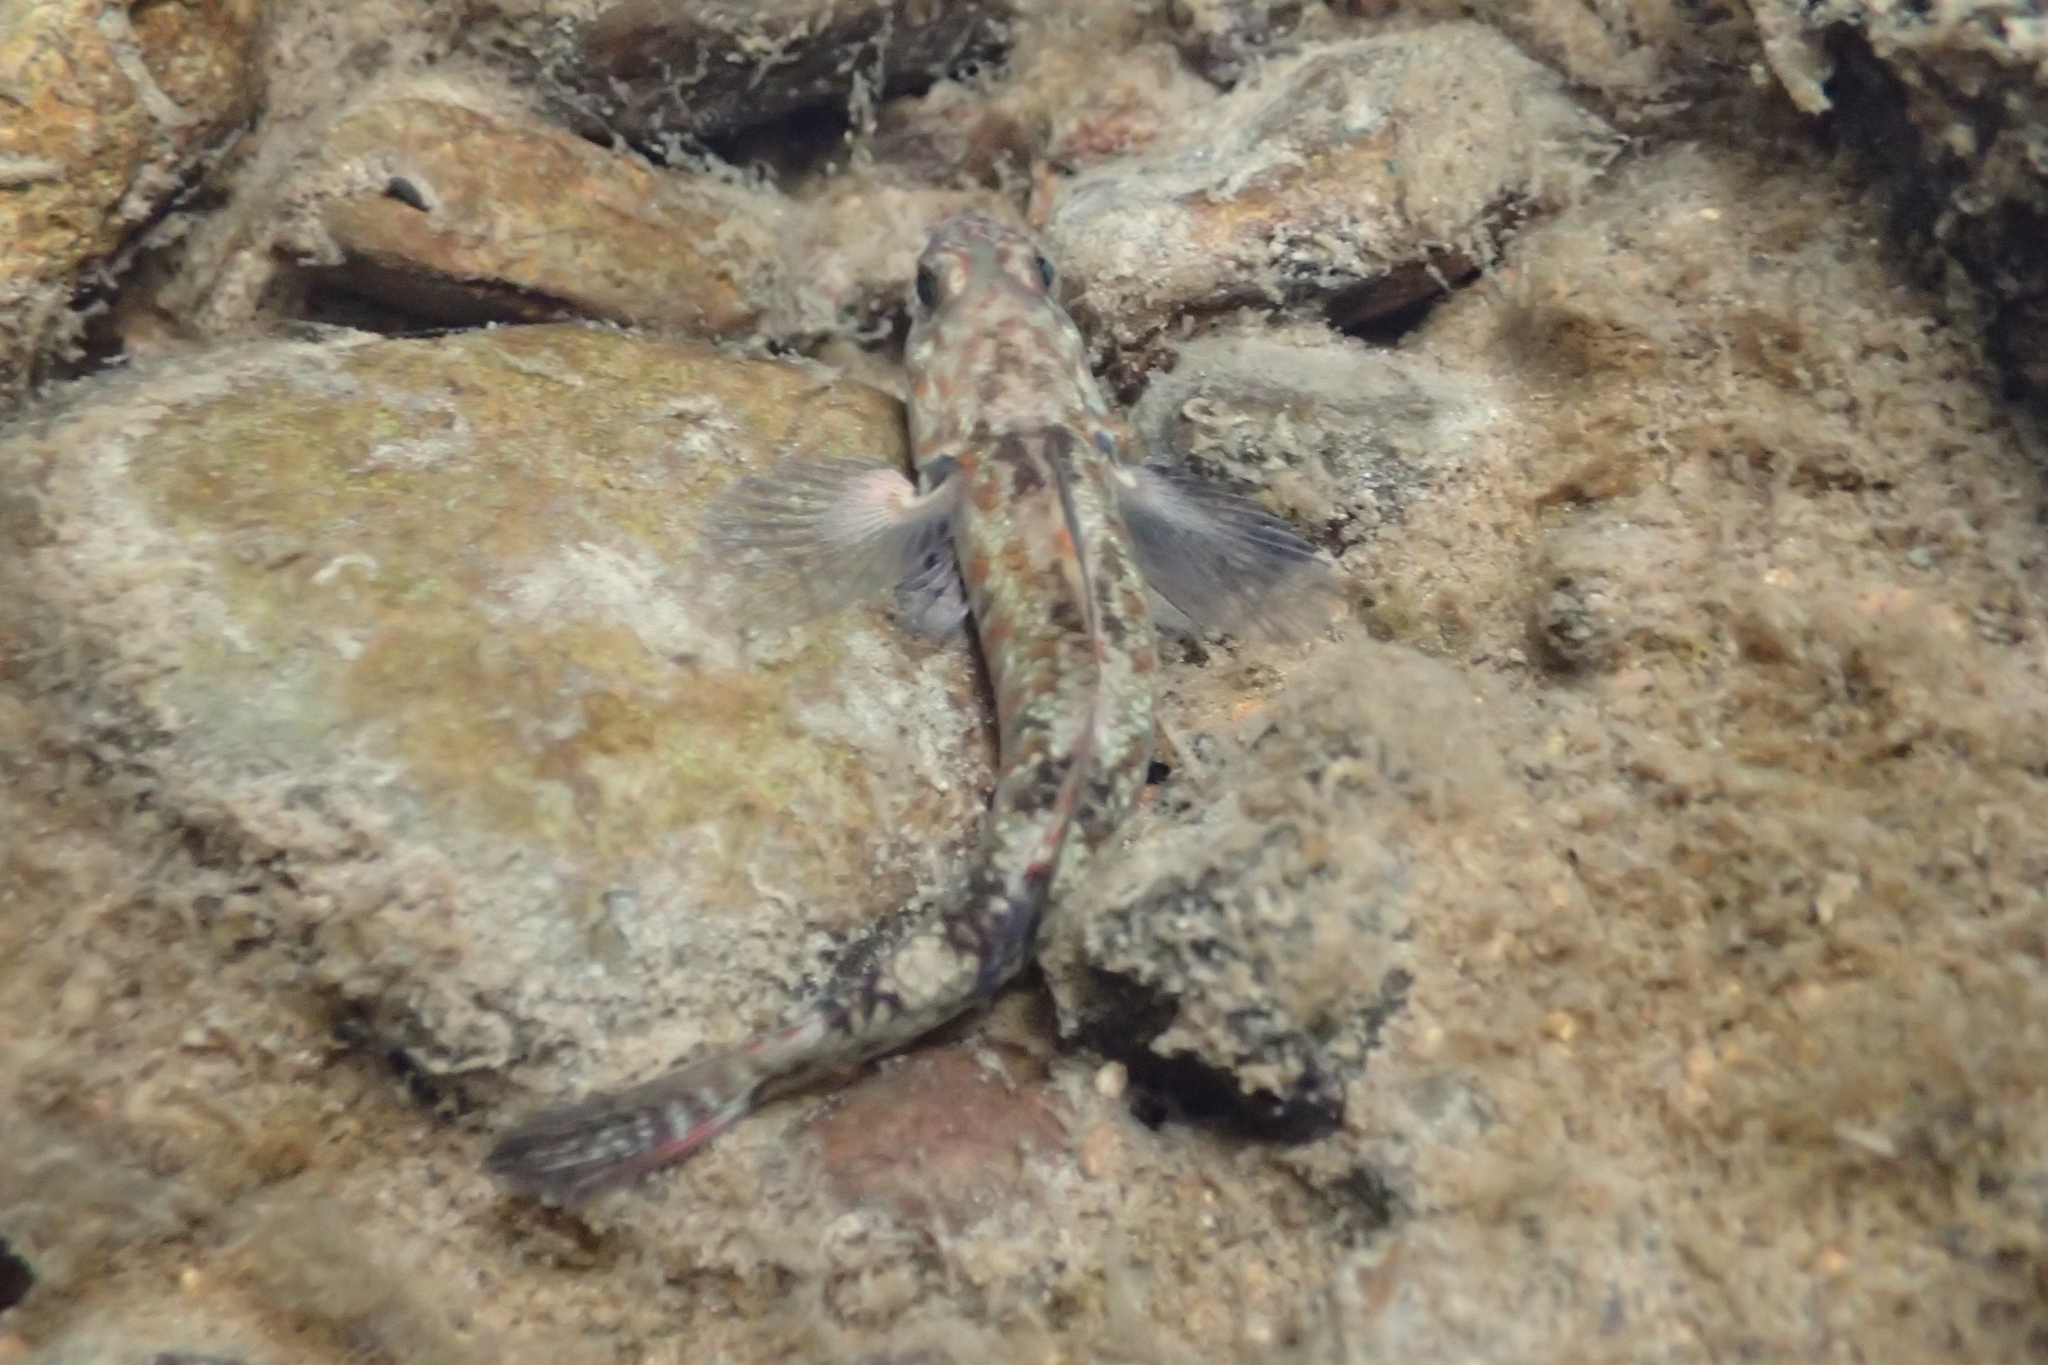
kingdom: Animalia
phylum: Chordata
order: Perciformes
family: Eleotridae
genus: Gobiomorphus
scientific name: Gobiomorphus huttoni
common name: Redfin bully
